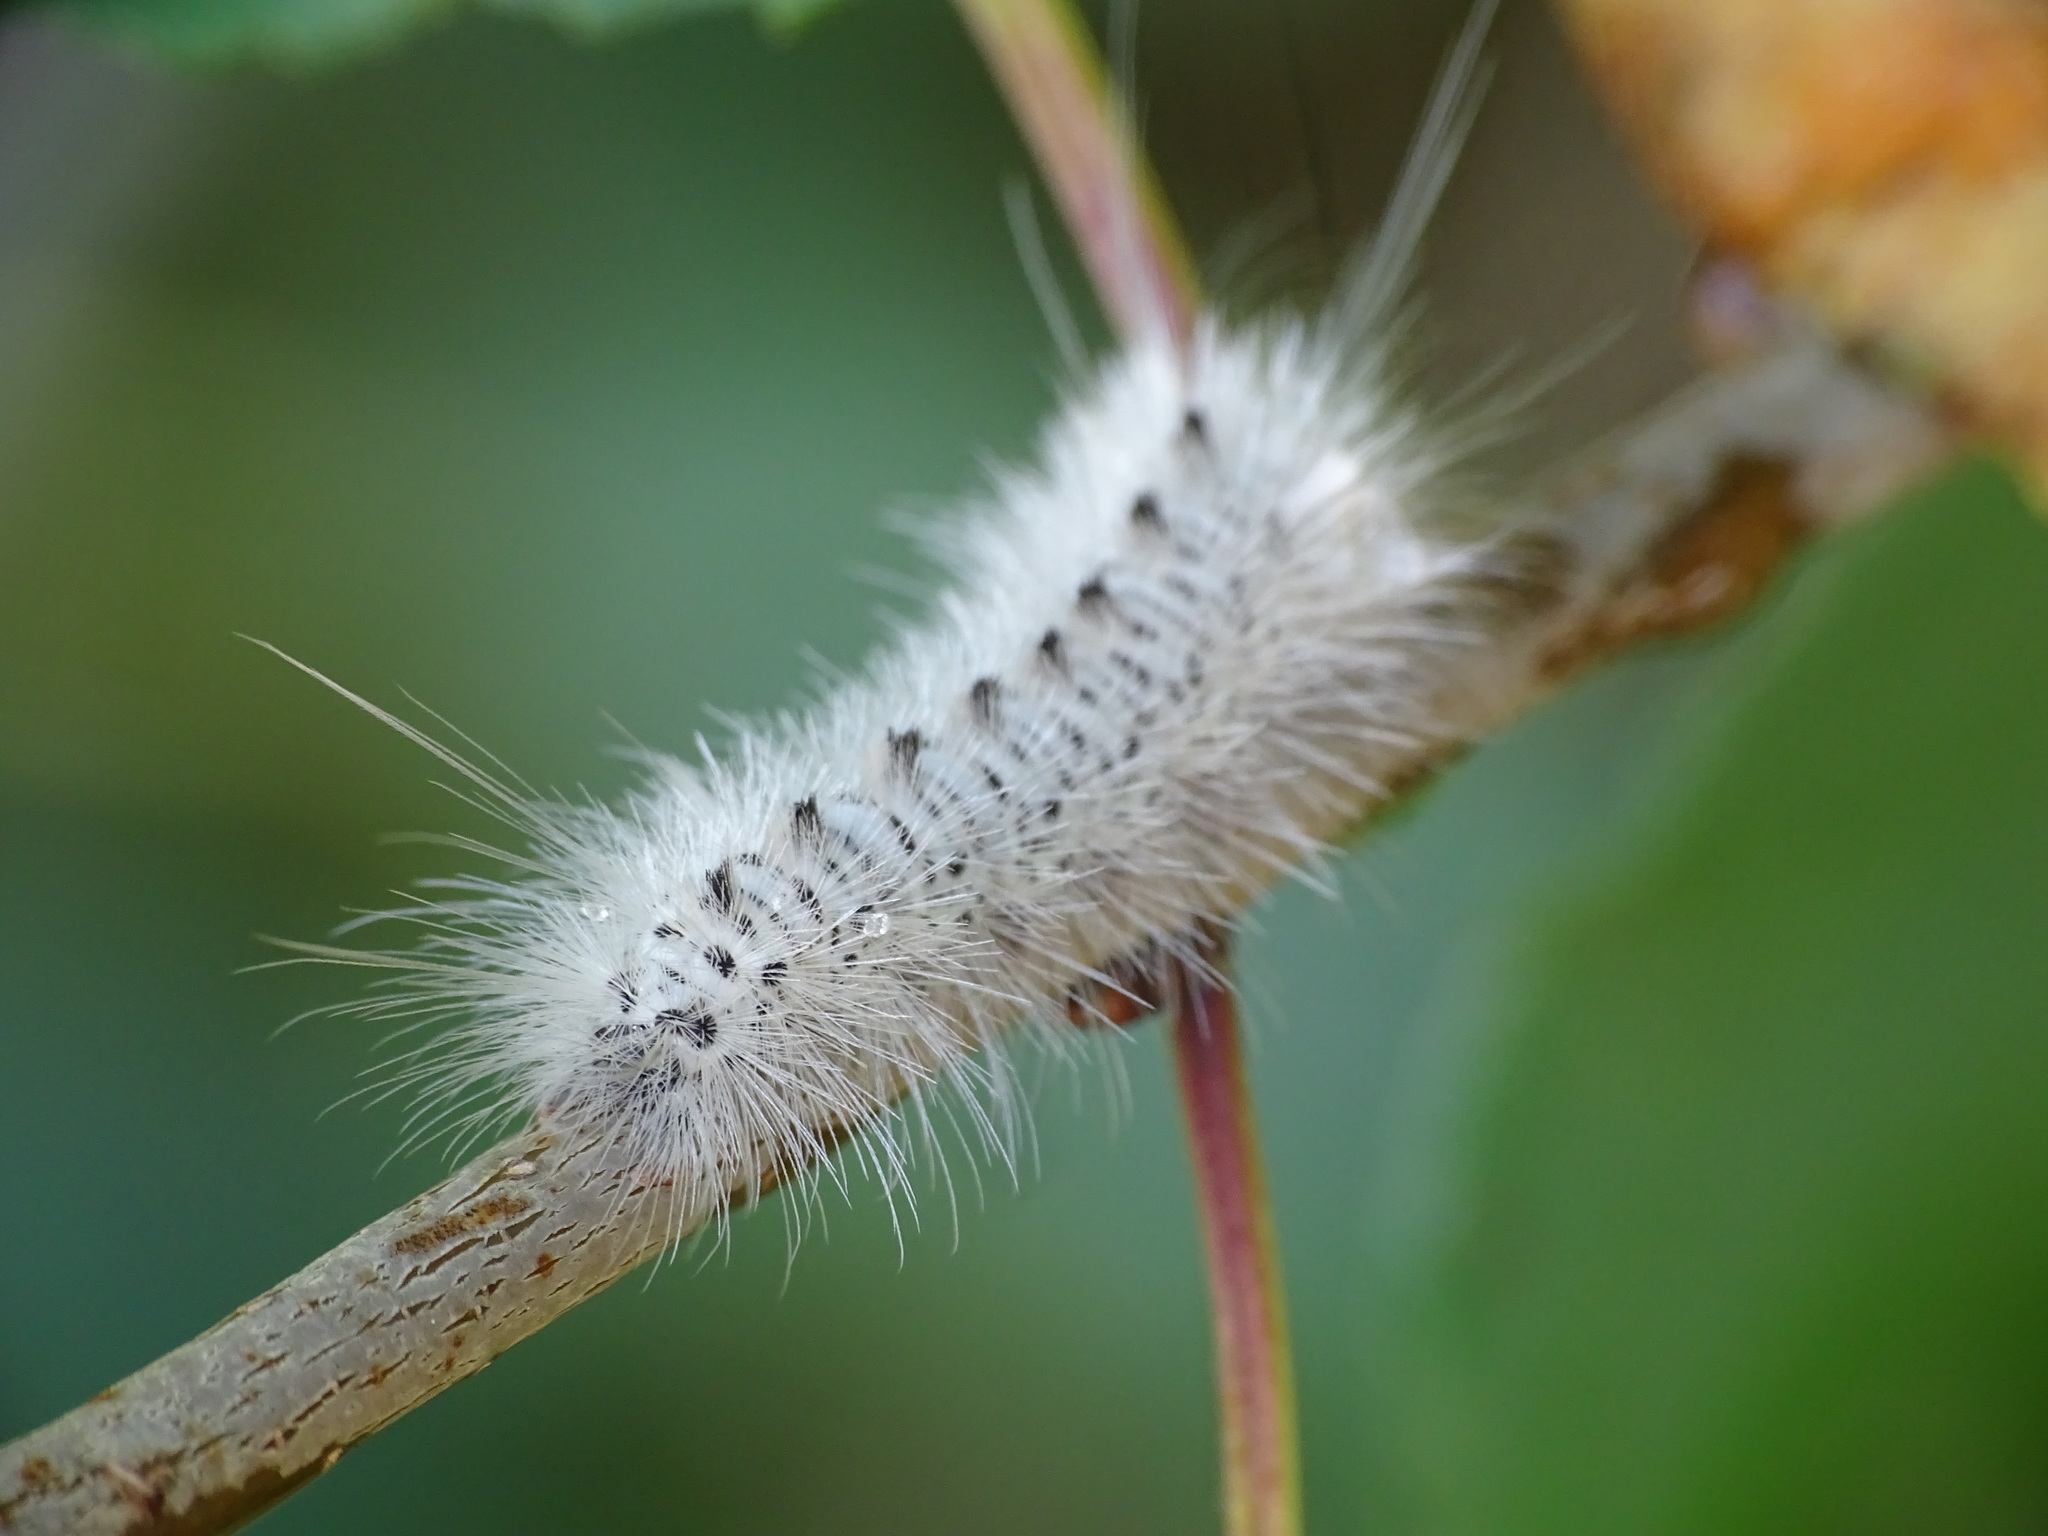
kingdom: Animalia
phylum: Arthropoda
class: Insecta
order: Lepidoptera
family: Erebidae
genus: Lophocampa
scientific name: Lophocampa caryae
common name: Hickory tussock moth
